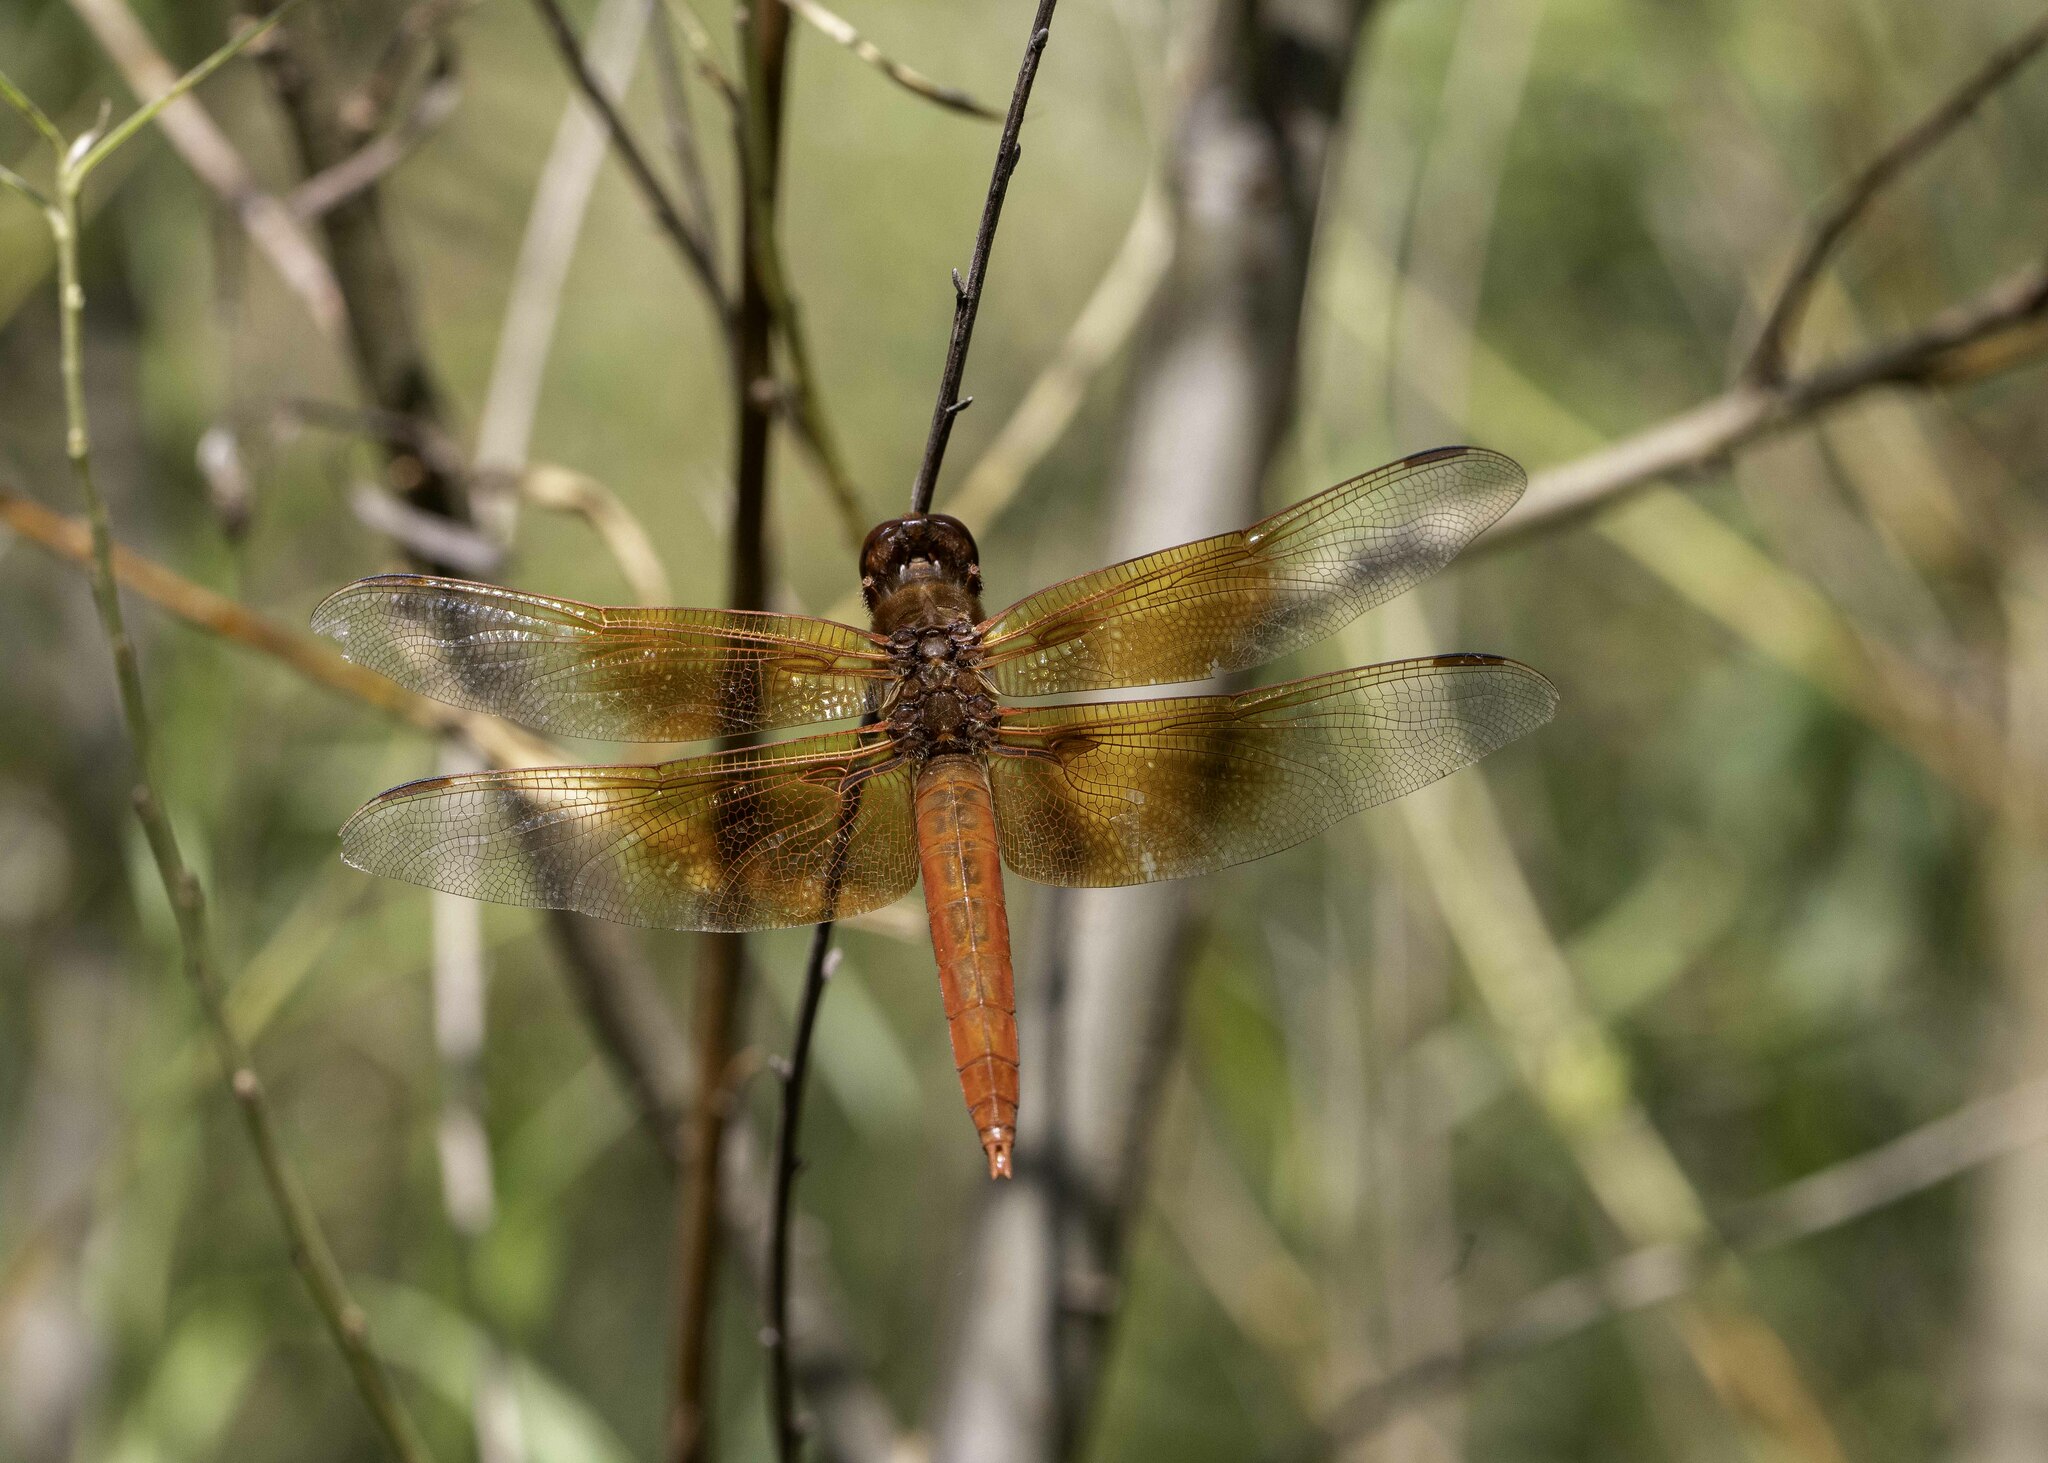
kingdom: Animalia
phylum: Arthropoda
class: Insecta
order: Odonata
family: Libellulidae
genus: Libellula
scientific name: Libellula saturata
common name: Flame skimmer
